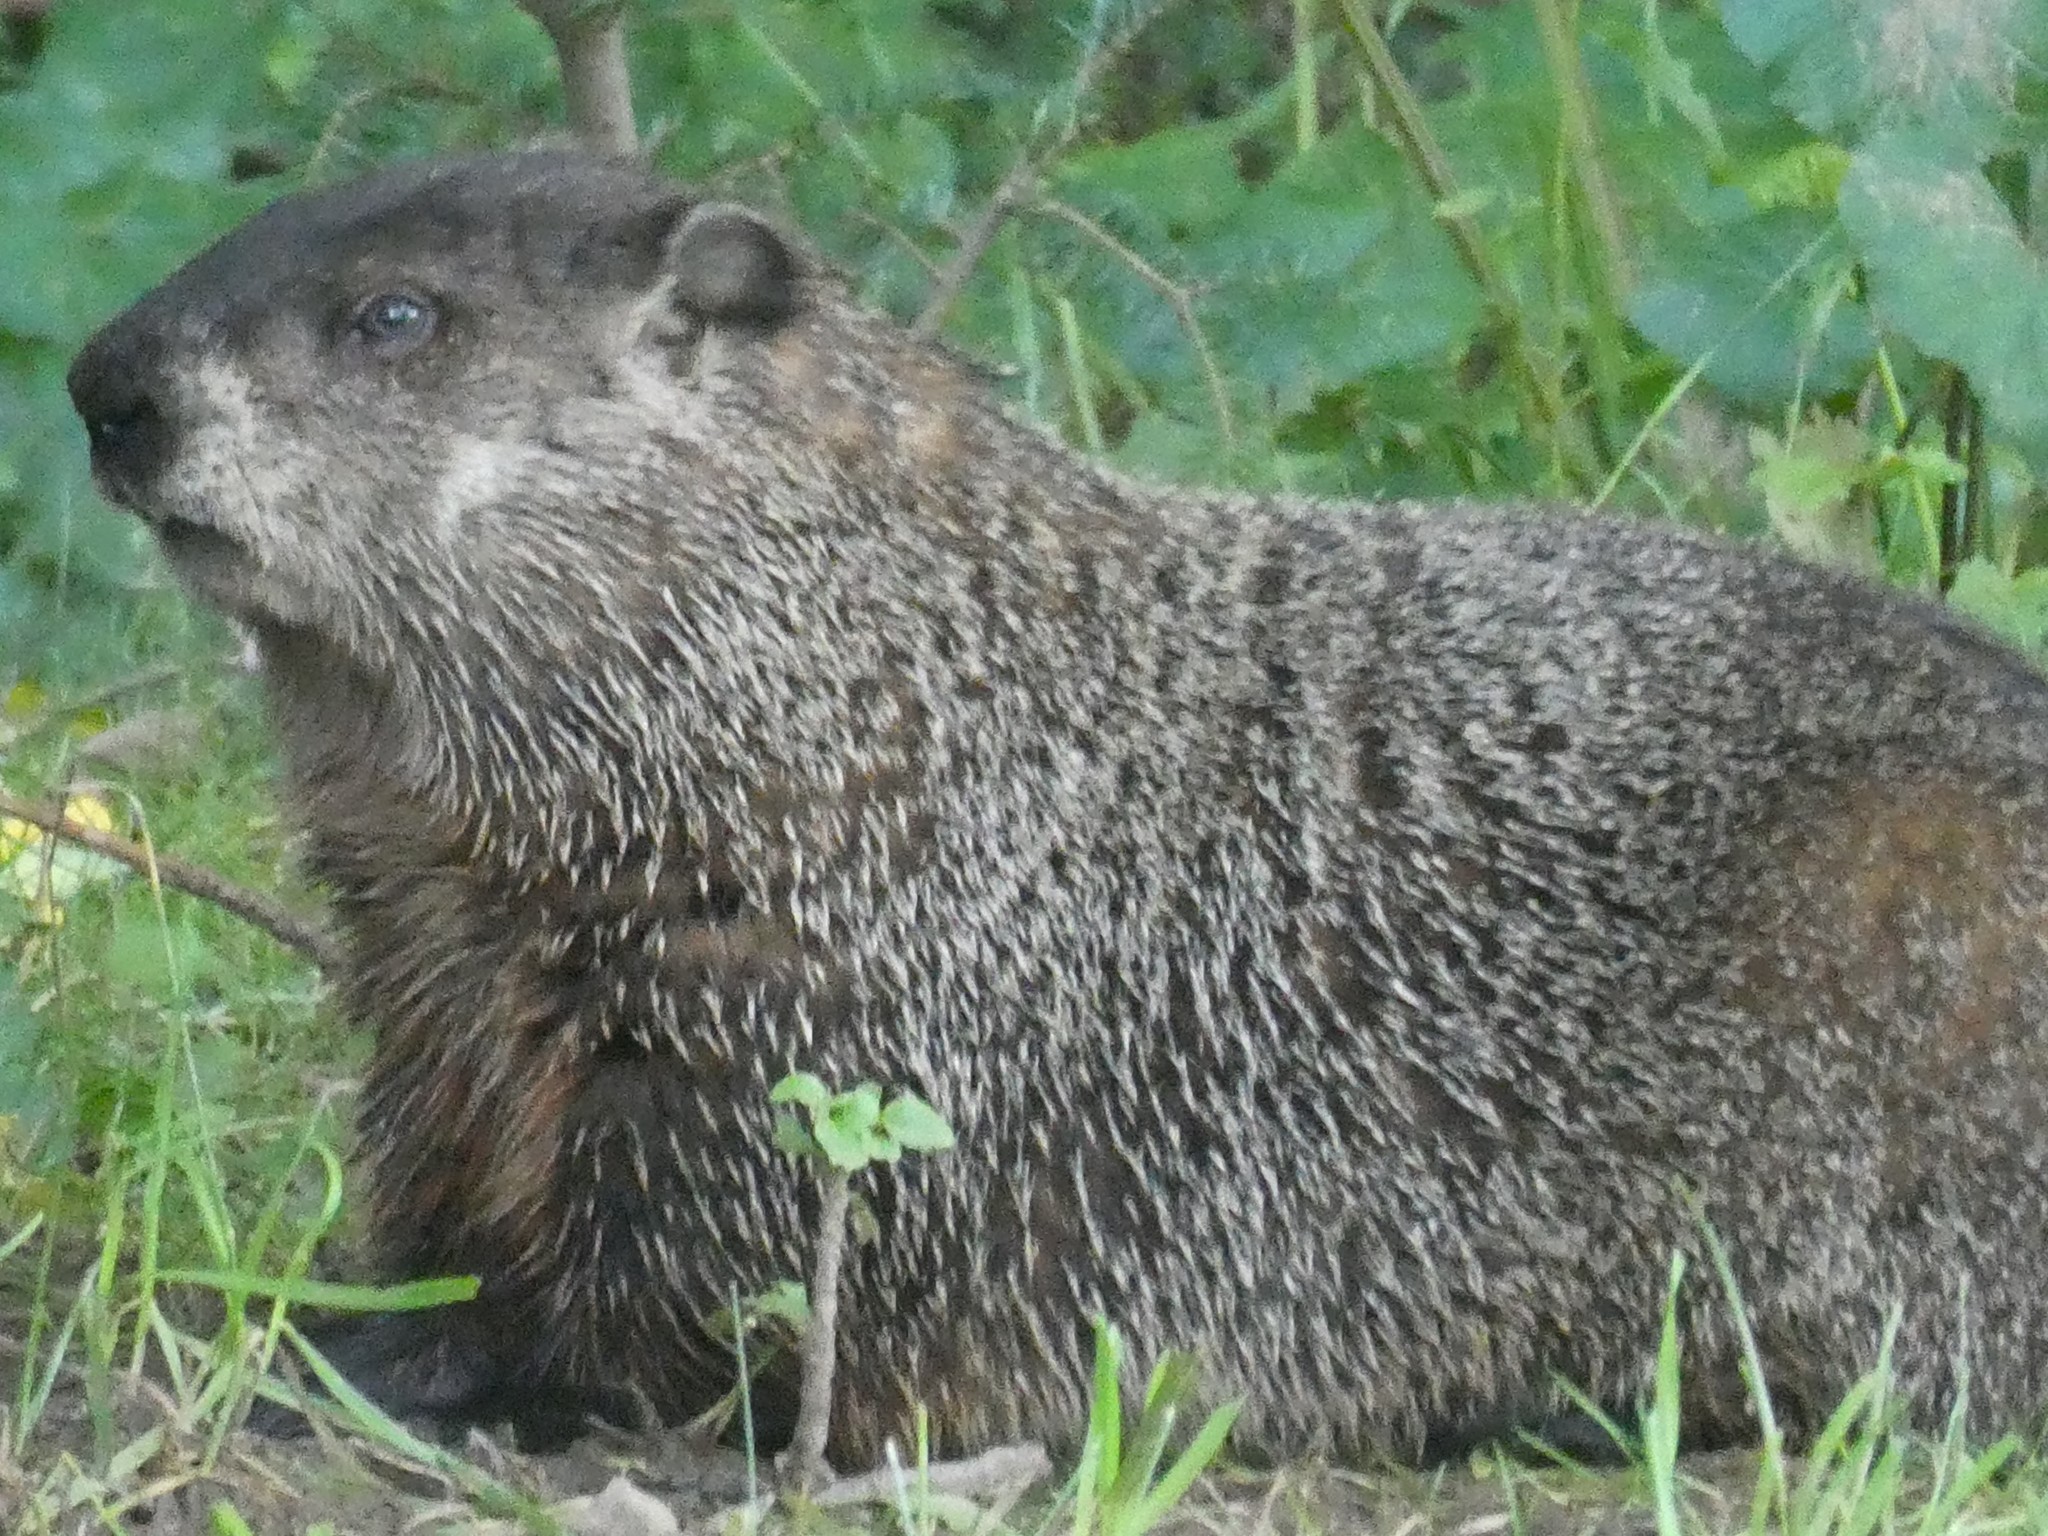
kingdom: Animalia
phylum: Chordata
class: Mammalia
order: Rodentia
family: Sciuridae
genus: Marmota
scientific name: Marmota monax
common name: Groundhog
